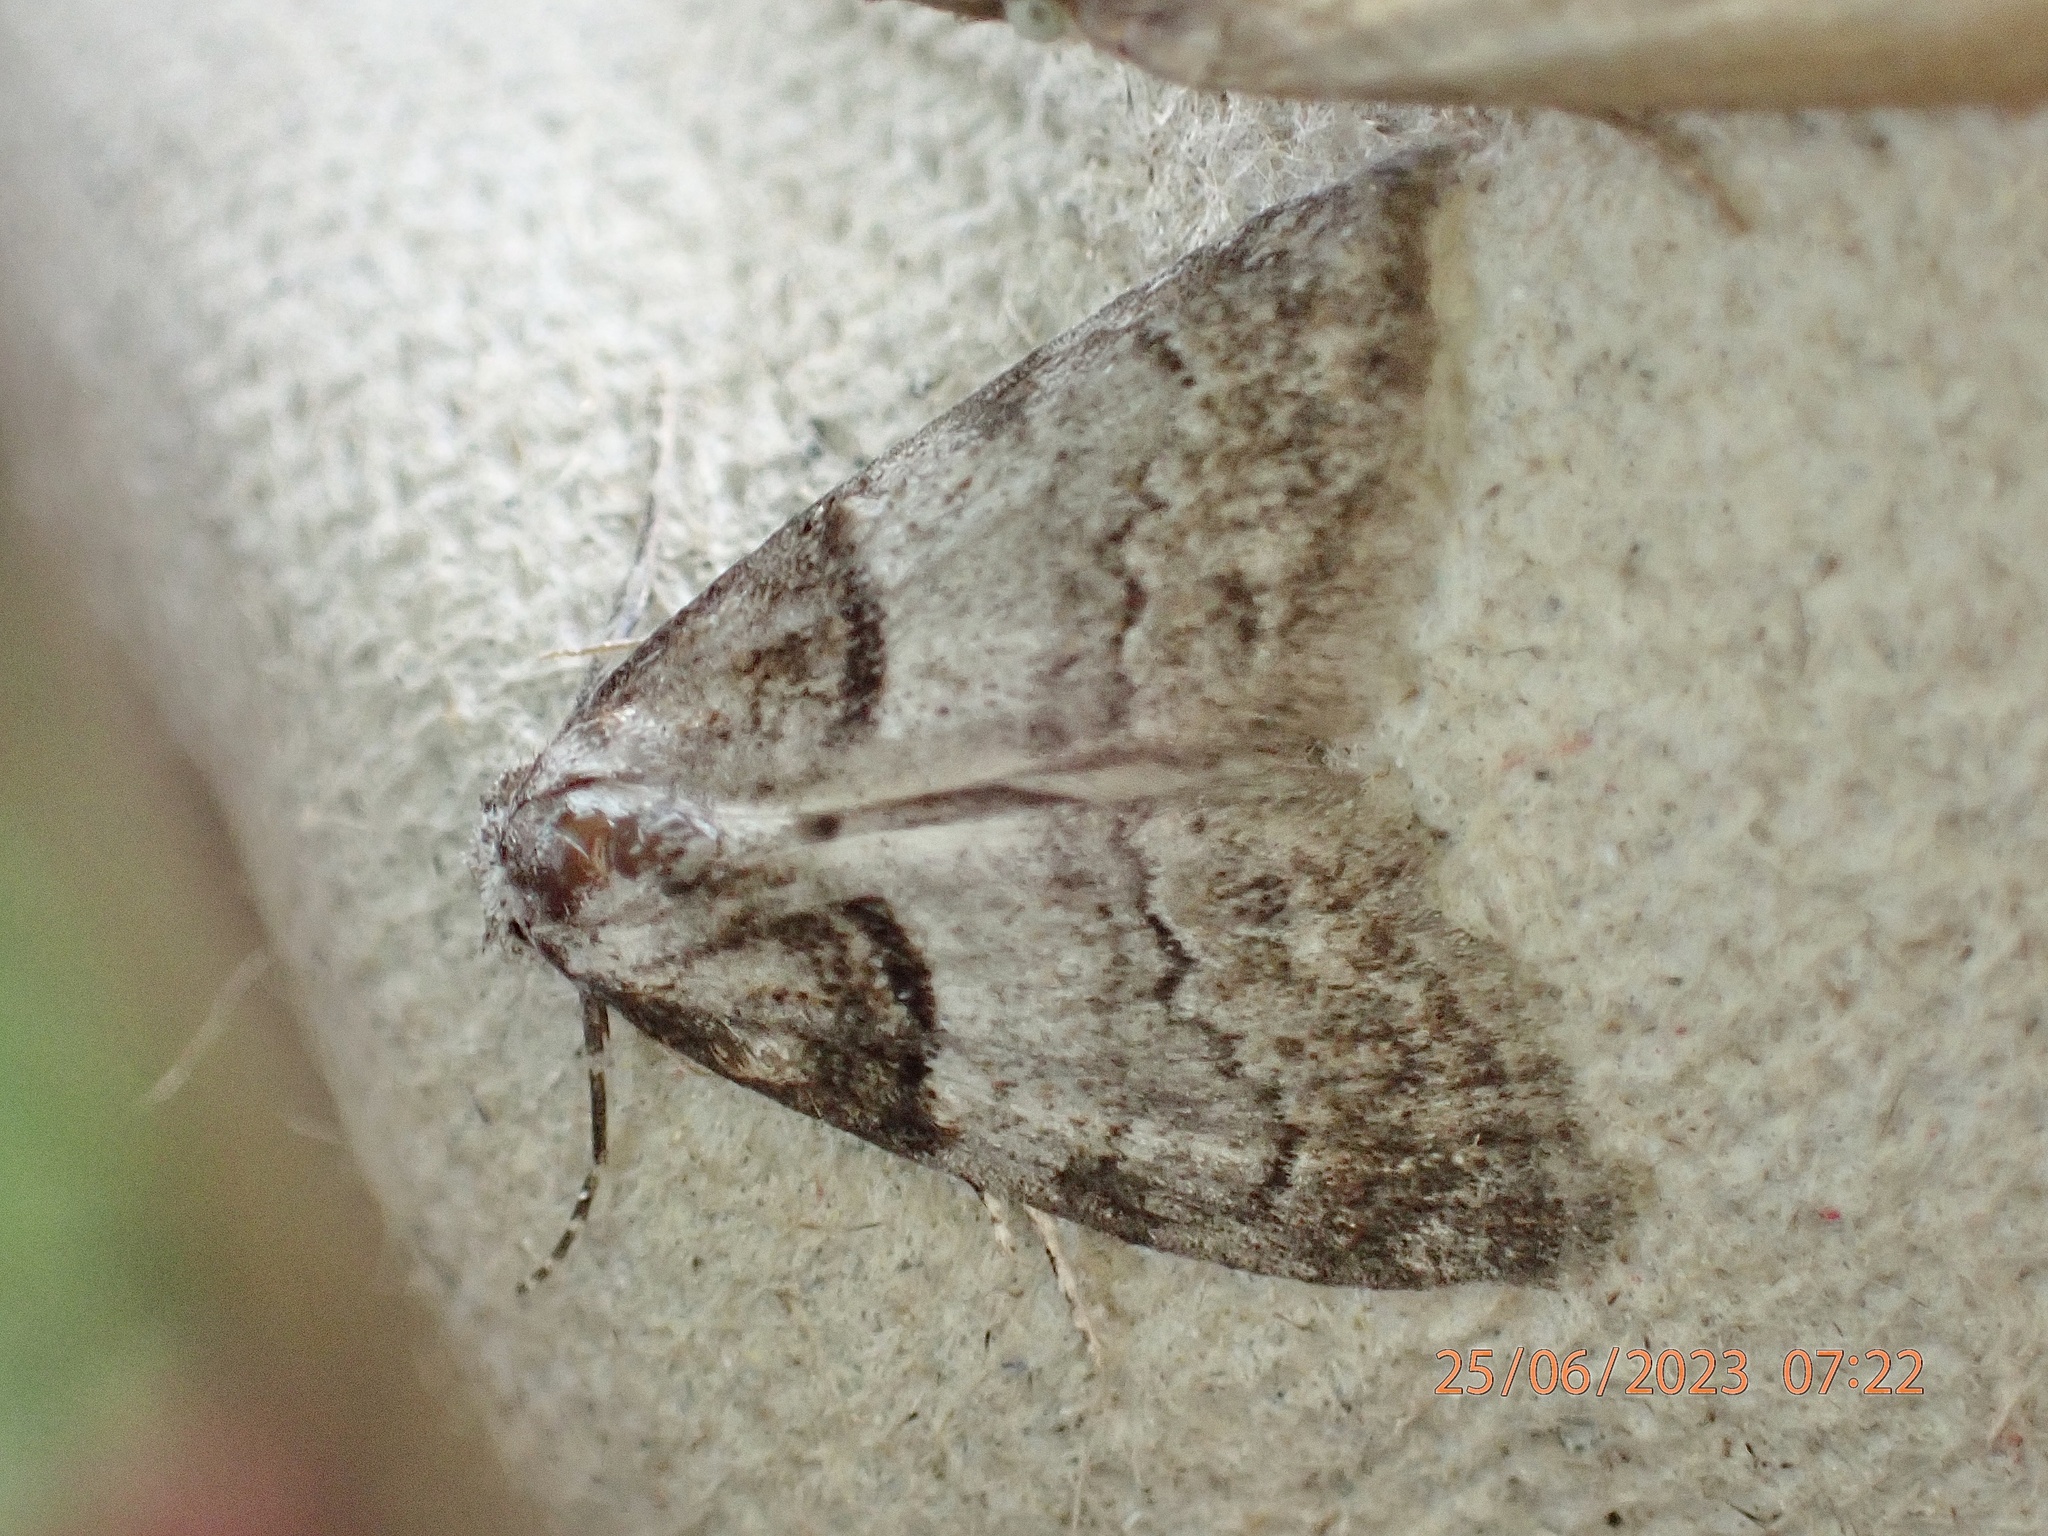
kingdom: Animalia
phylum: Arthropoda
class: Insecta
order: Lepidoptera
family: Nolidae
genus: Nola
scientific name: Nola cucullatella
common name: Short-cloaked moth
